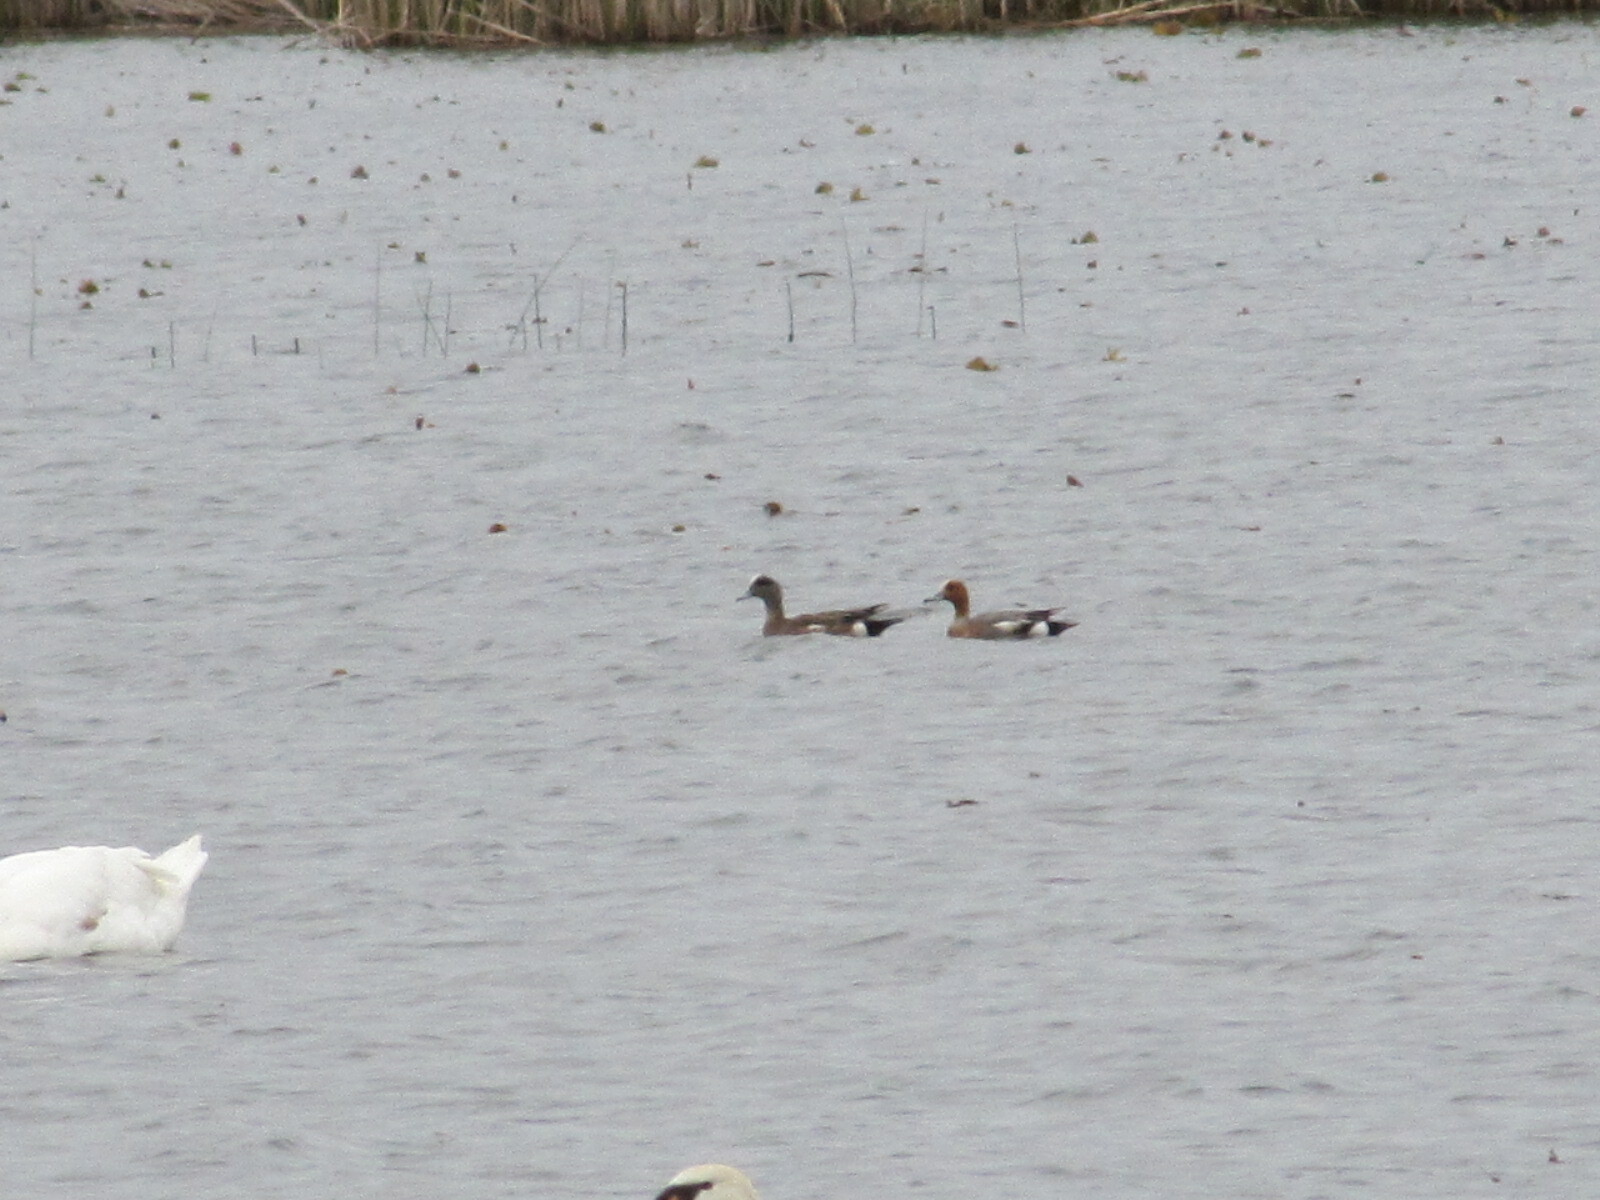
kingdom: Animalia
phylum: Chordata
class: Aves
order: Anseriformes
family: Anatidae
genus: Mareca
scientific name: Mareca penelope
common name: Eurasian wigeon
